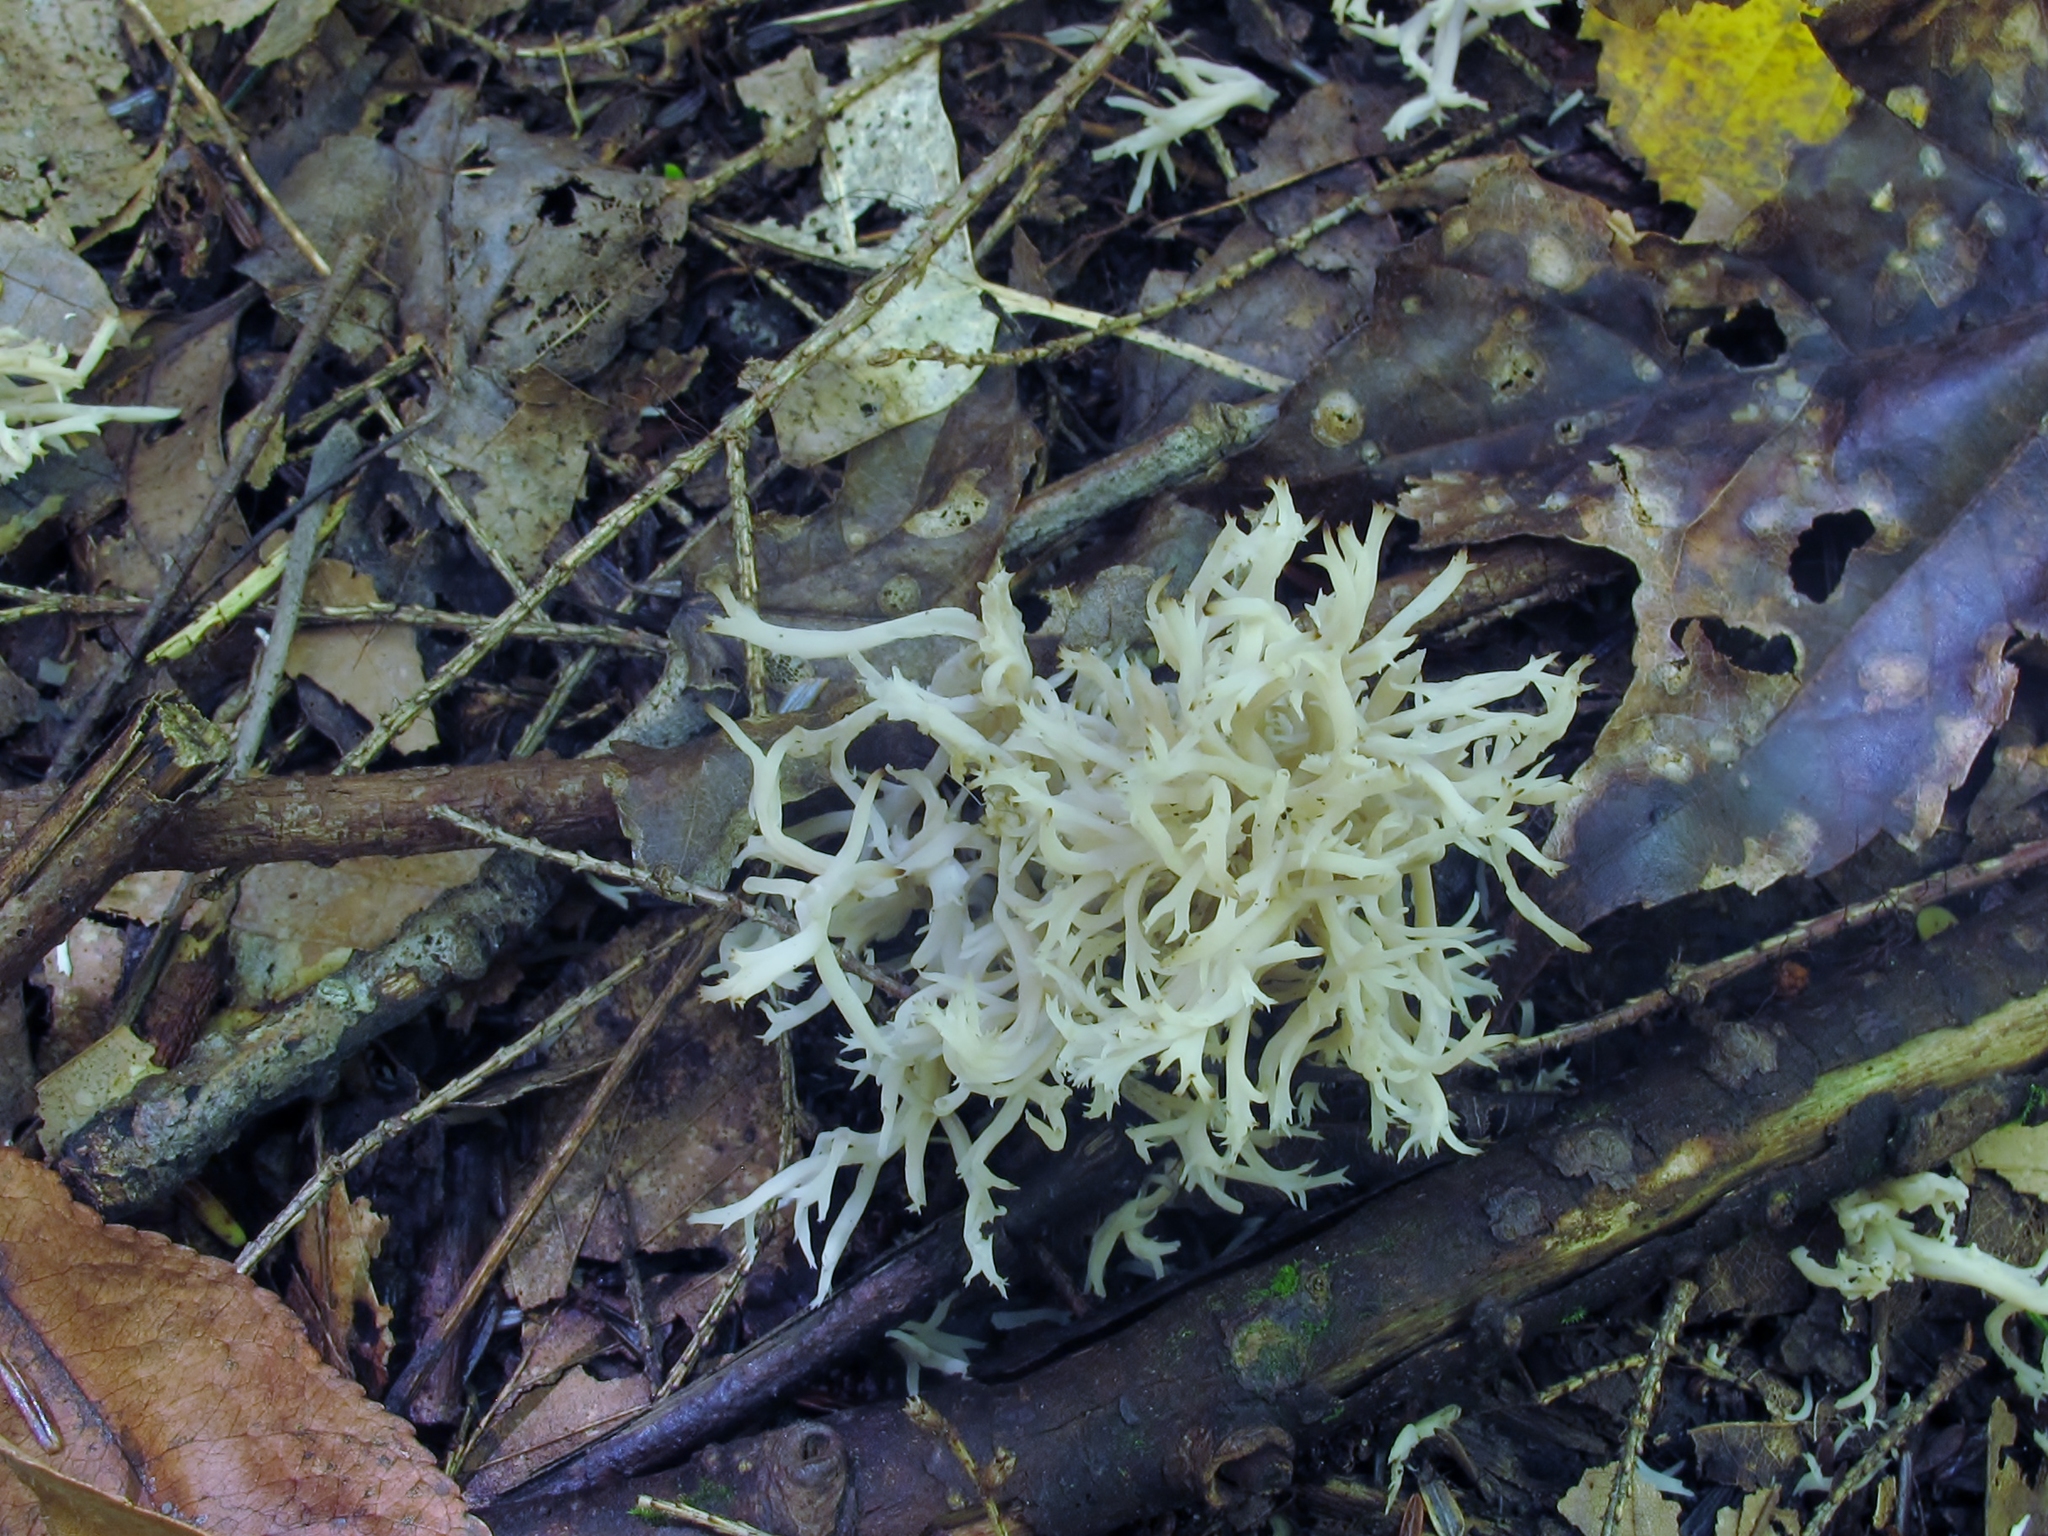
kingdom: Fungi
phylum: Basidiomycota
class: Agaricomycetes
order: Cantharellales
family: Hydnaceae
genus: Clavulina
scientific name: Clavulina coralloides
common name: Crested coral
